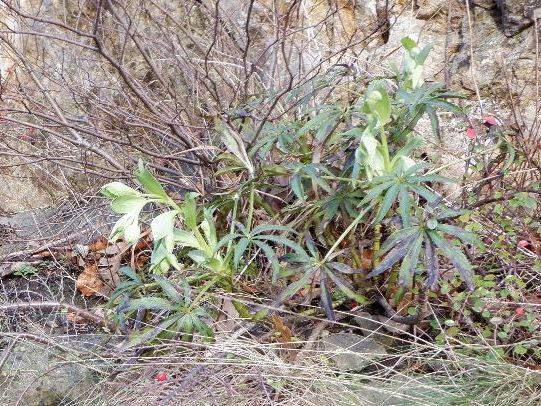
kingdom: Plantae
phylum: Tracheophyta
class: Magnoliopsida
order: Ranunculales
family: Ranunculaceae
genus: Helleborus
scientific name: Helleborus foetidus
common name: Stinking hellebore
